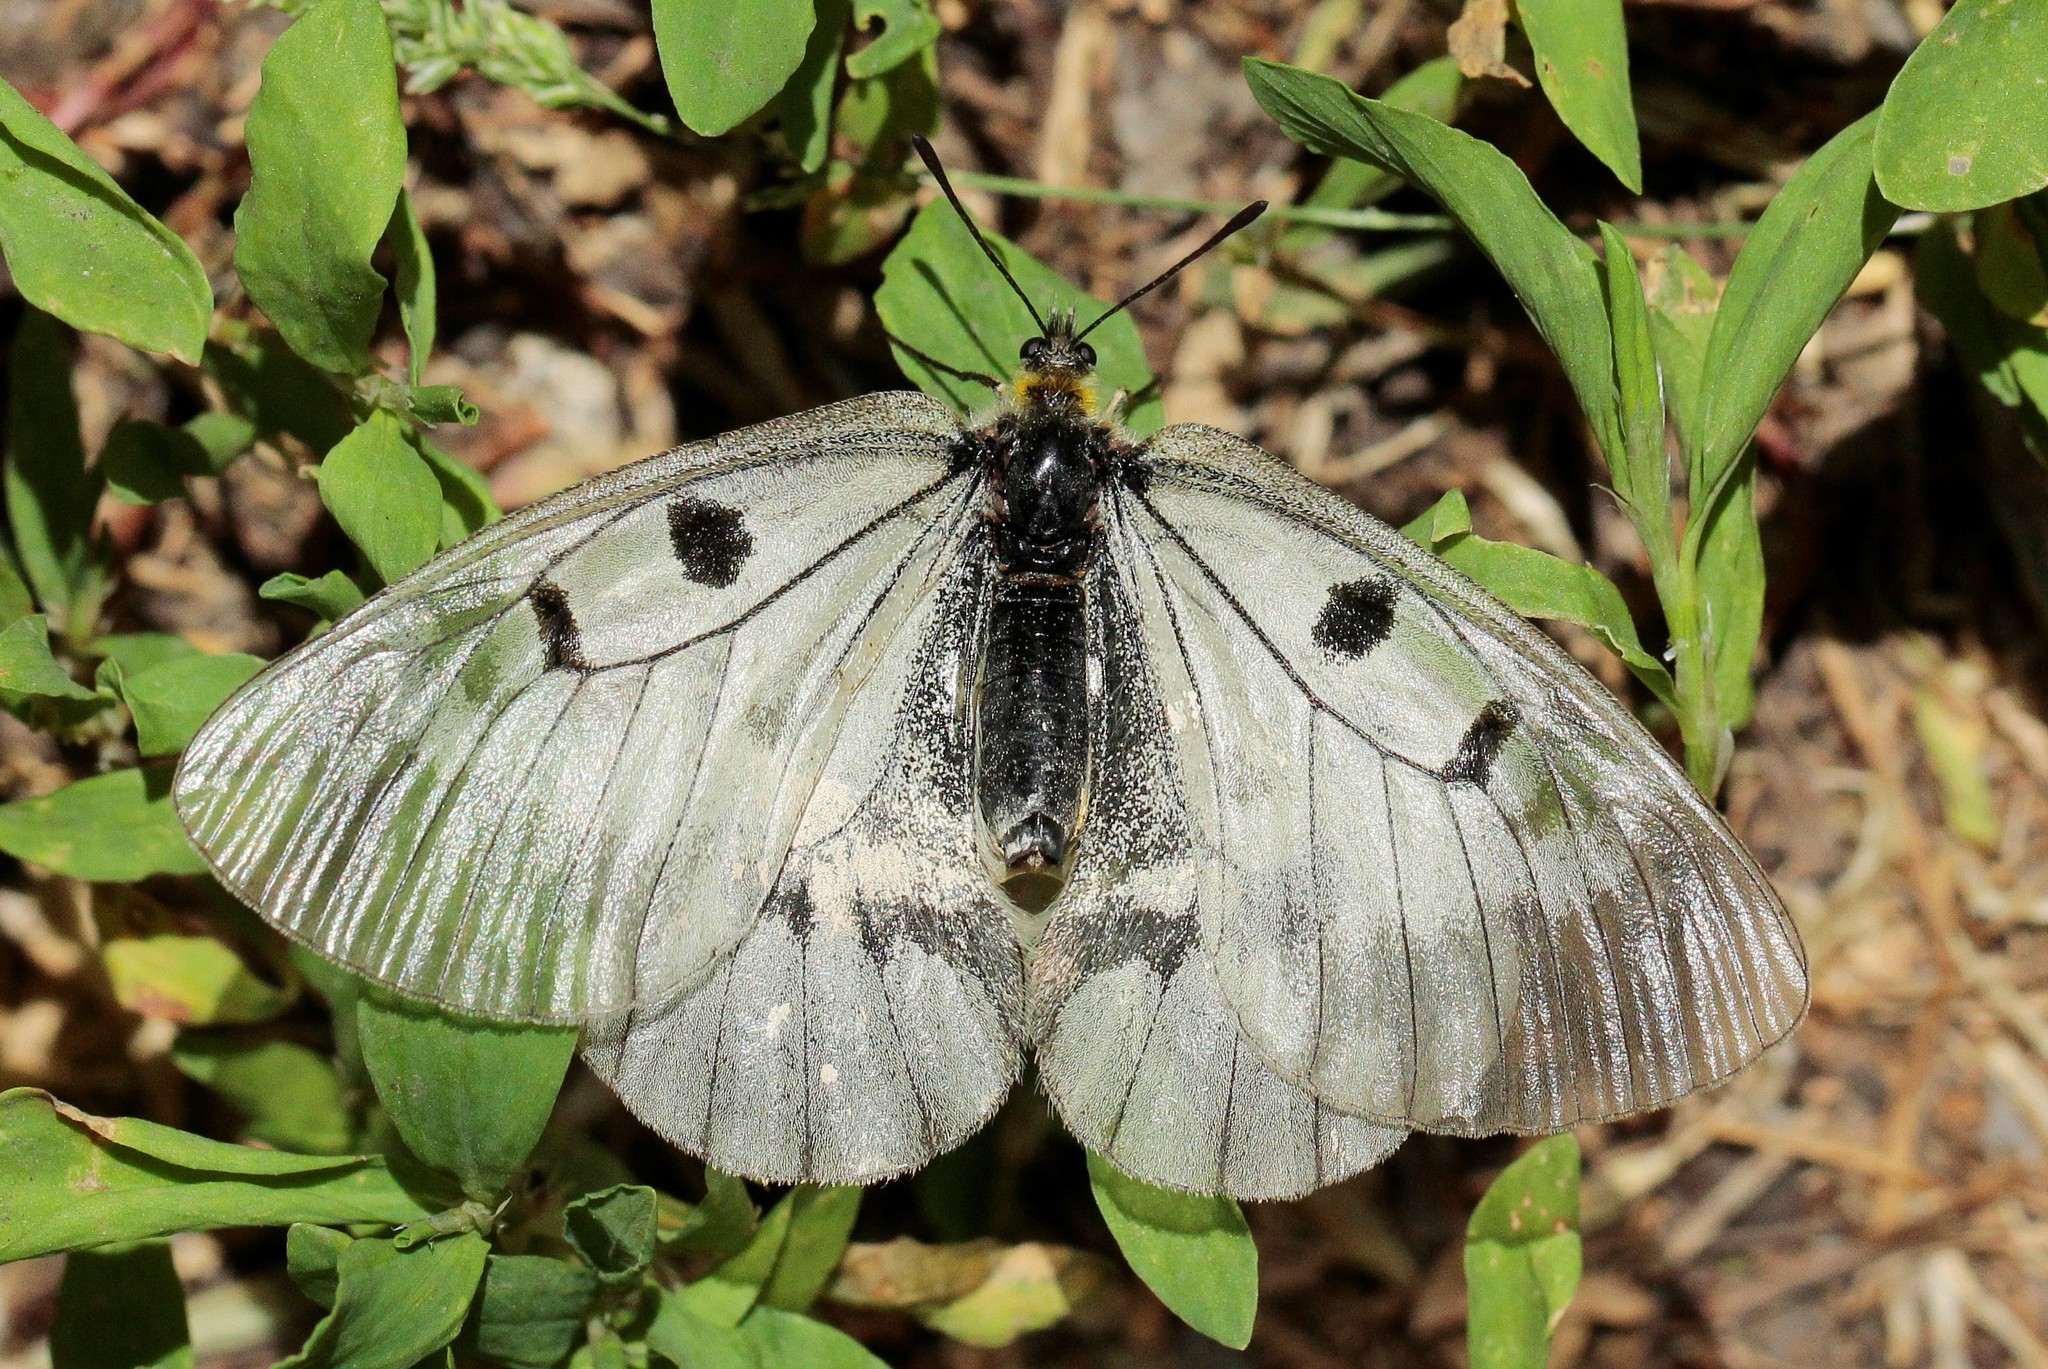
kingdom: Animalia
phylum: Arthropoda
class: Insecta
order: Lepidoptera
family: Papilionidae
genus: Parnassius
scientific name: Parnassius mnemosyne
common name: Clouded apollo
